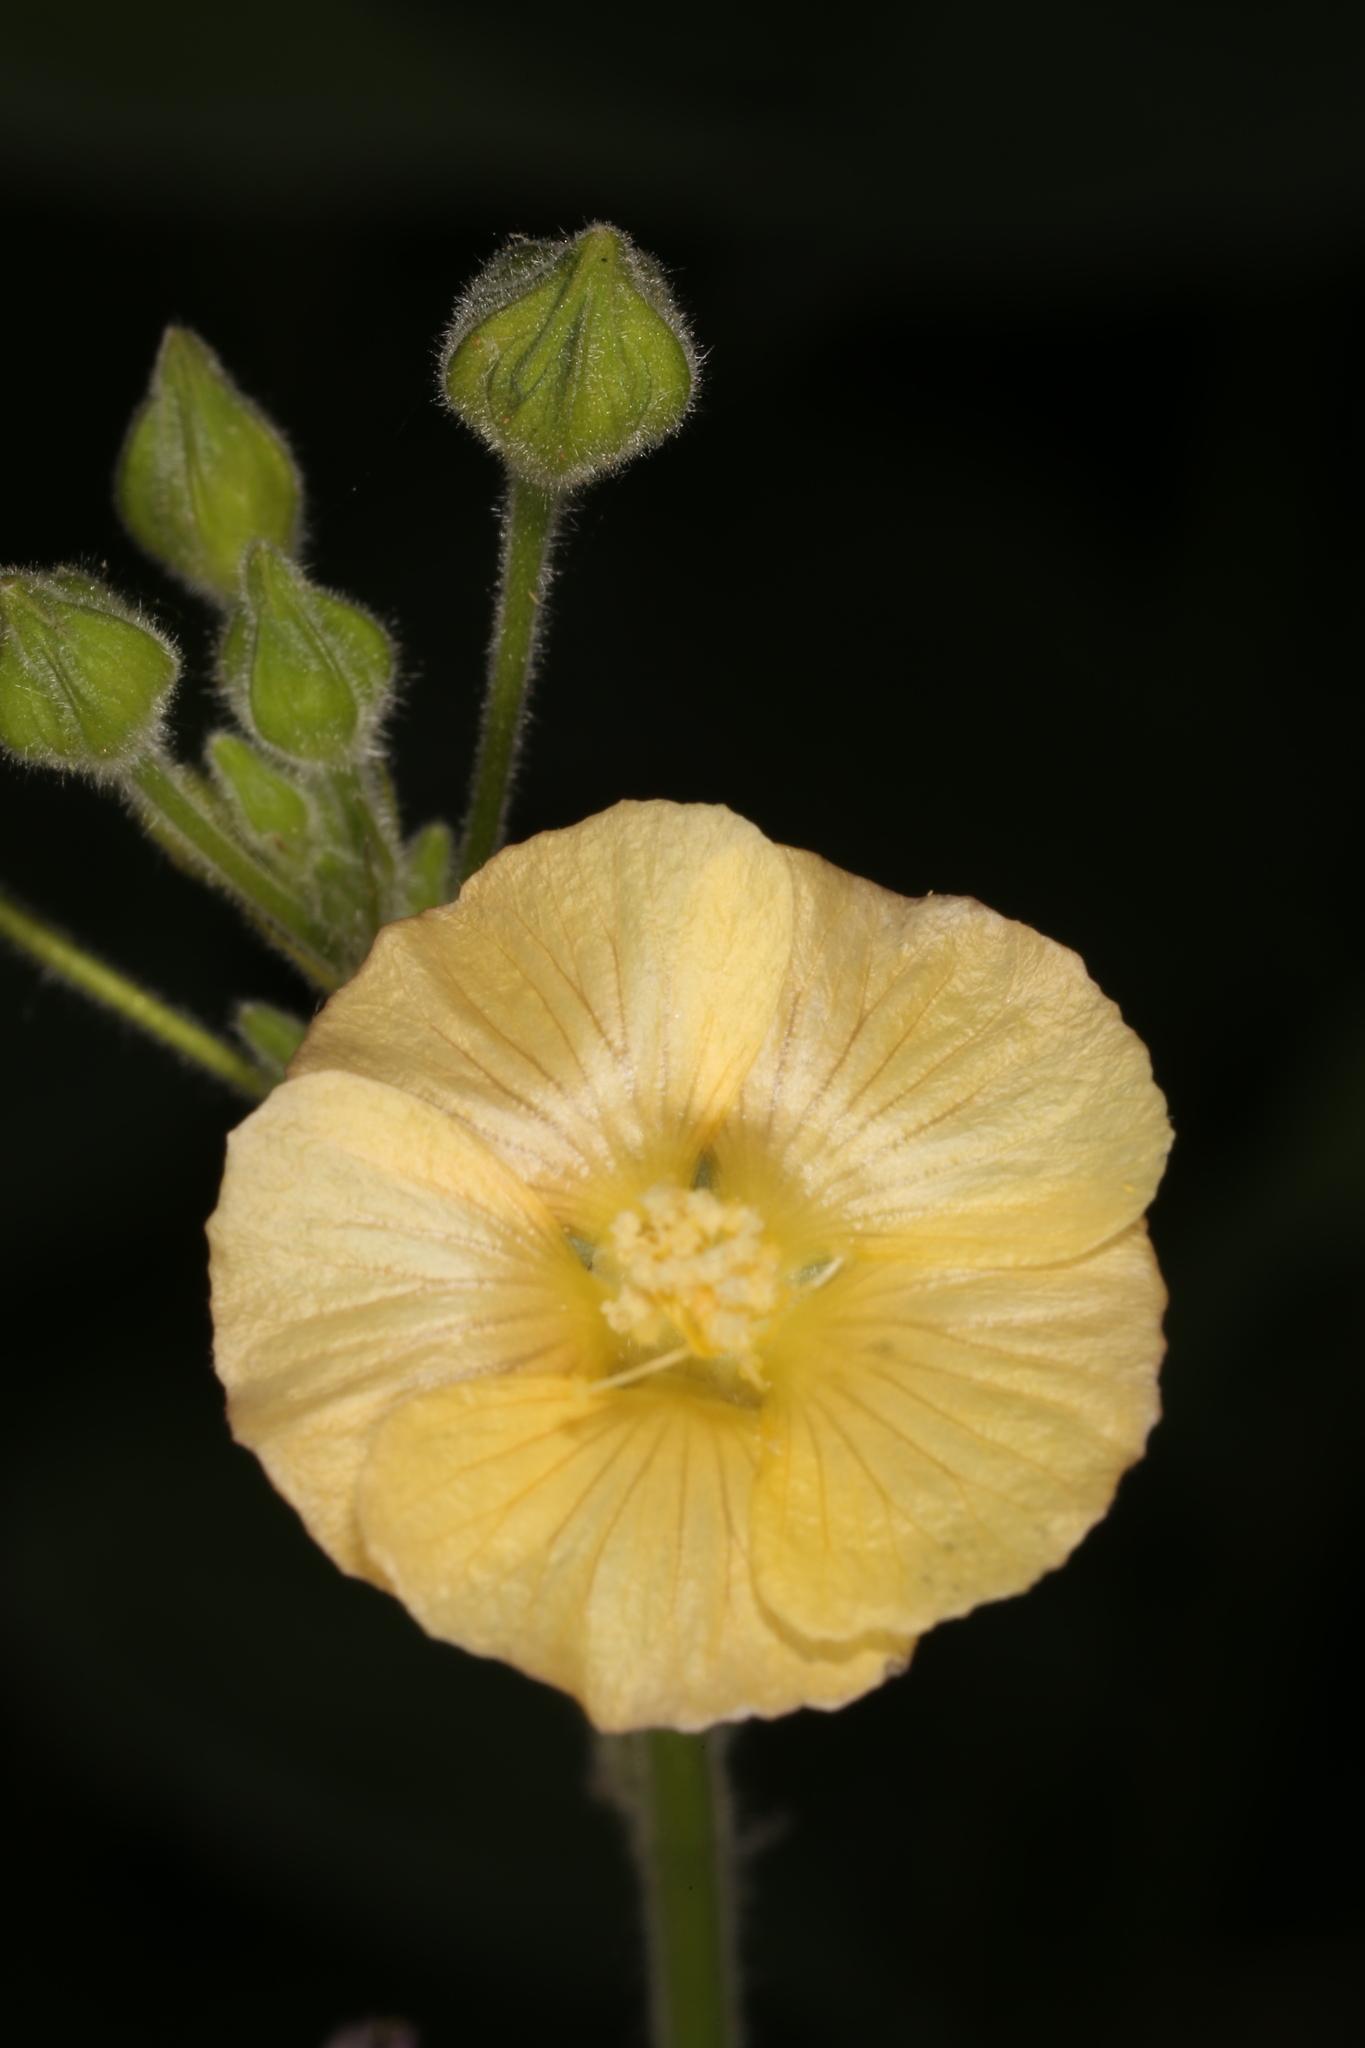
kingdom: Plantae
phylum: Tracheophyta
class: Magnoliopsida
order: Malvales
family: Malvaceae
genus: Anoda
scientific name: Anoda abutiloides
